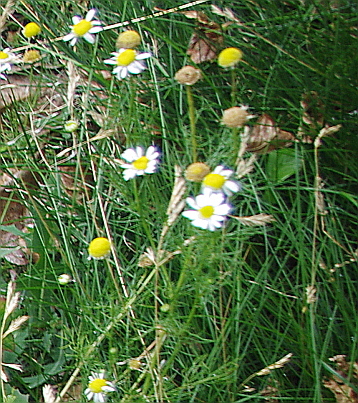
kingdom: Plantae
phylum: Tracheophyta
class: Magnoliopsida
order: Asterales
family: Asteraceae
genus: Tripleurospermum
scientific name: Tripleurospermum inodorum
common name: Scentless mayweed
